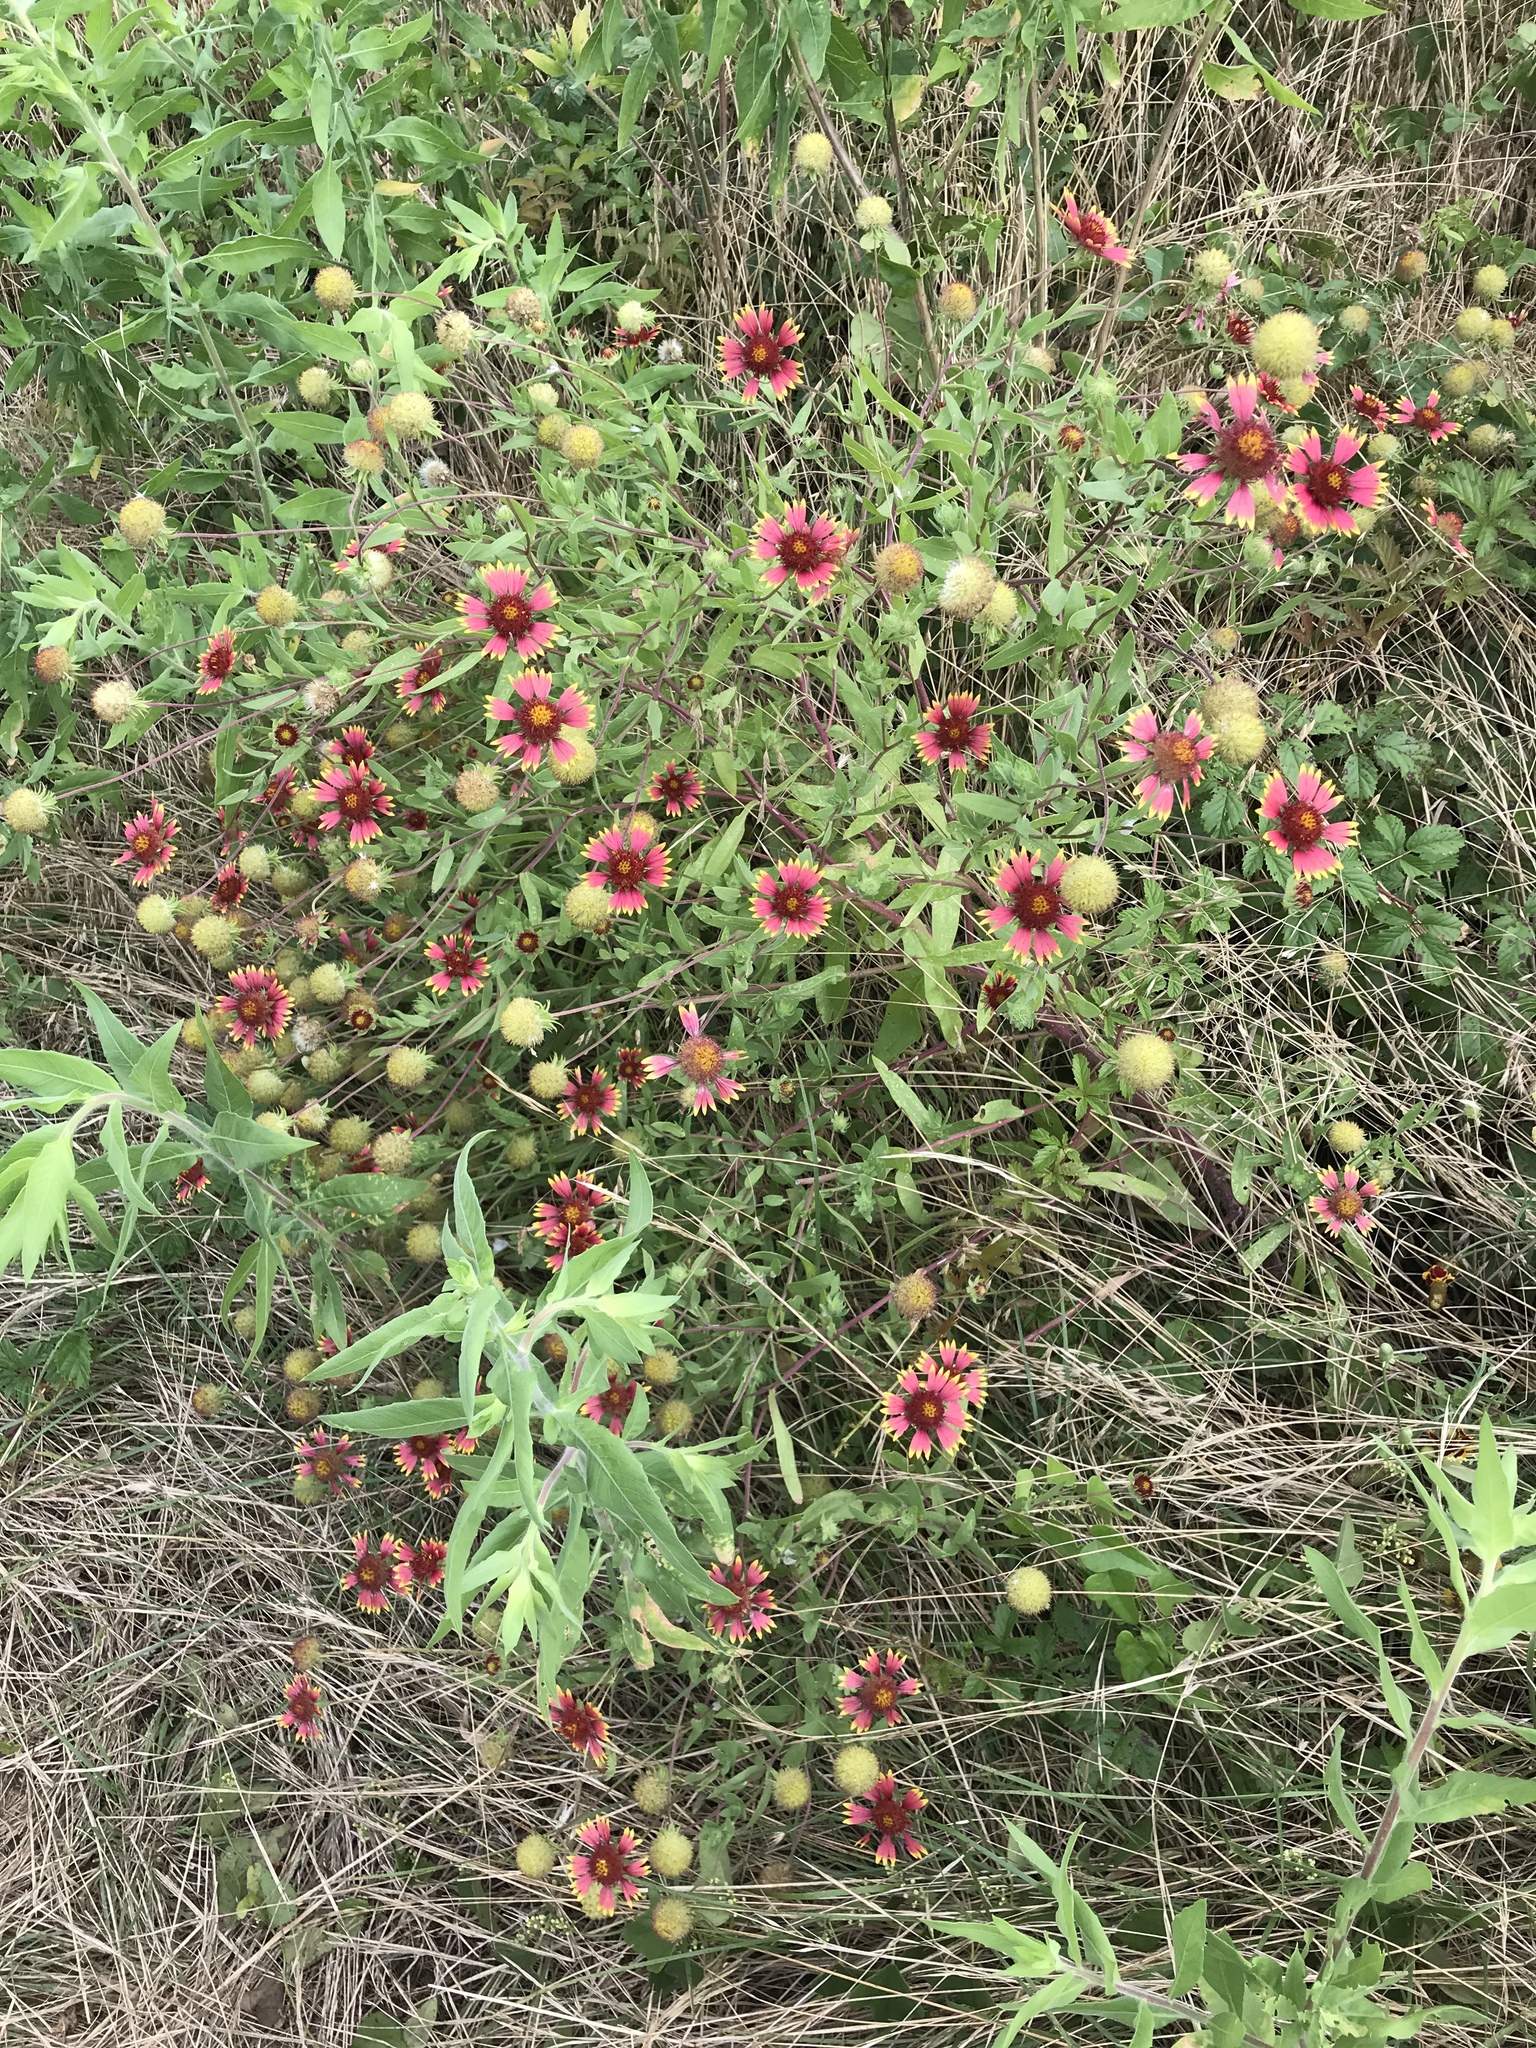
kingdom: Plantae
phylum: Tracheophyta
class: Magnoliopsida
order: Asterales
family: Asteraceae
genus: Gaillardia
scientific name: Gaillardia pulchella
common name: Firewheel
